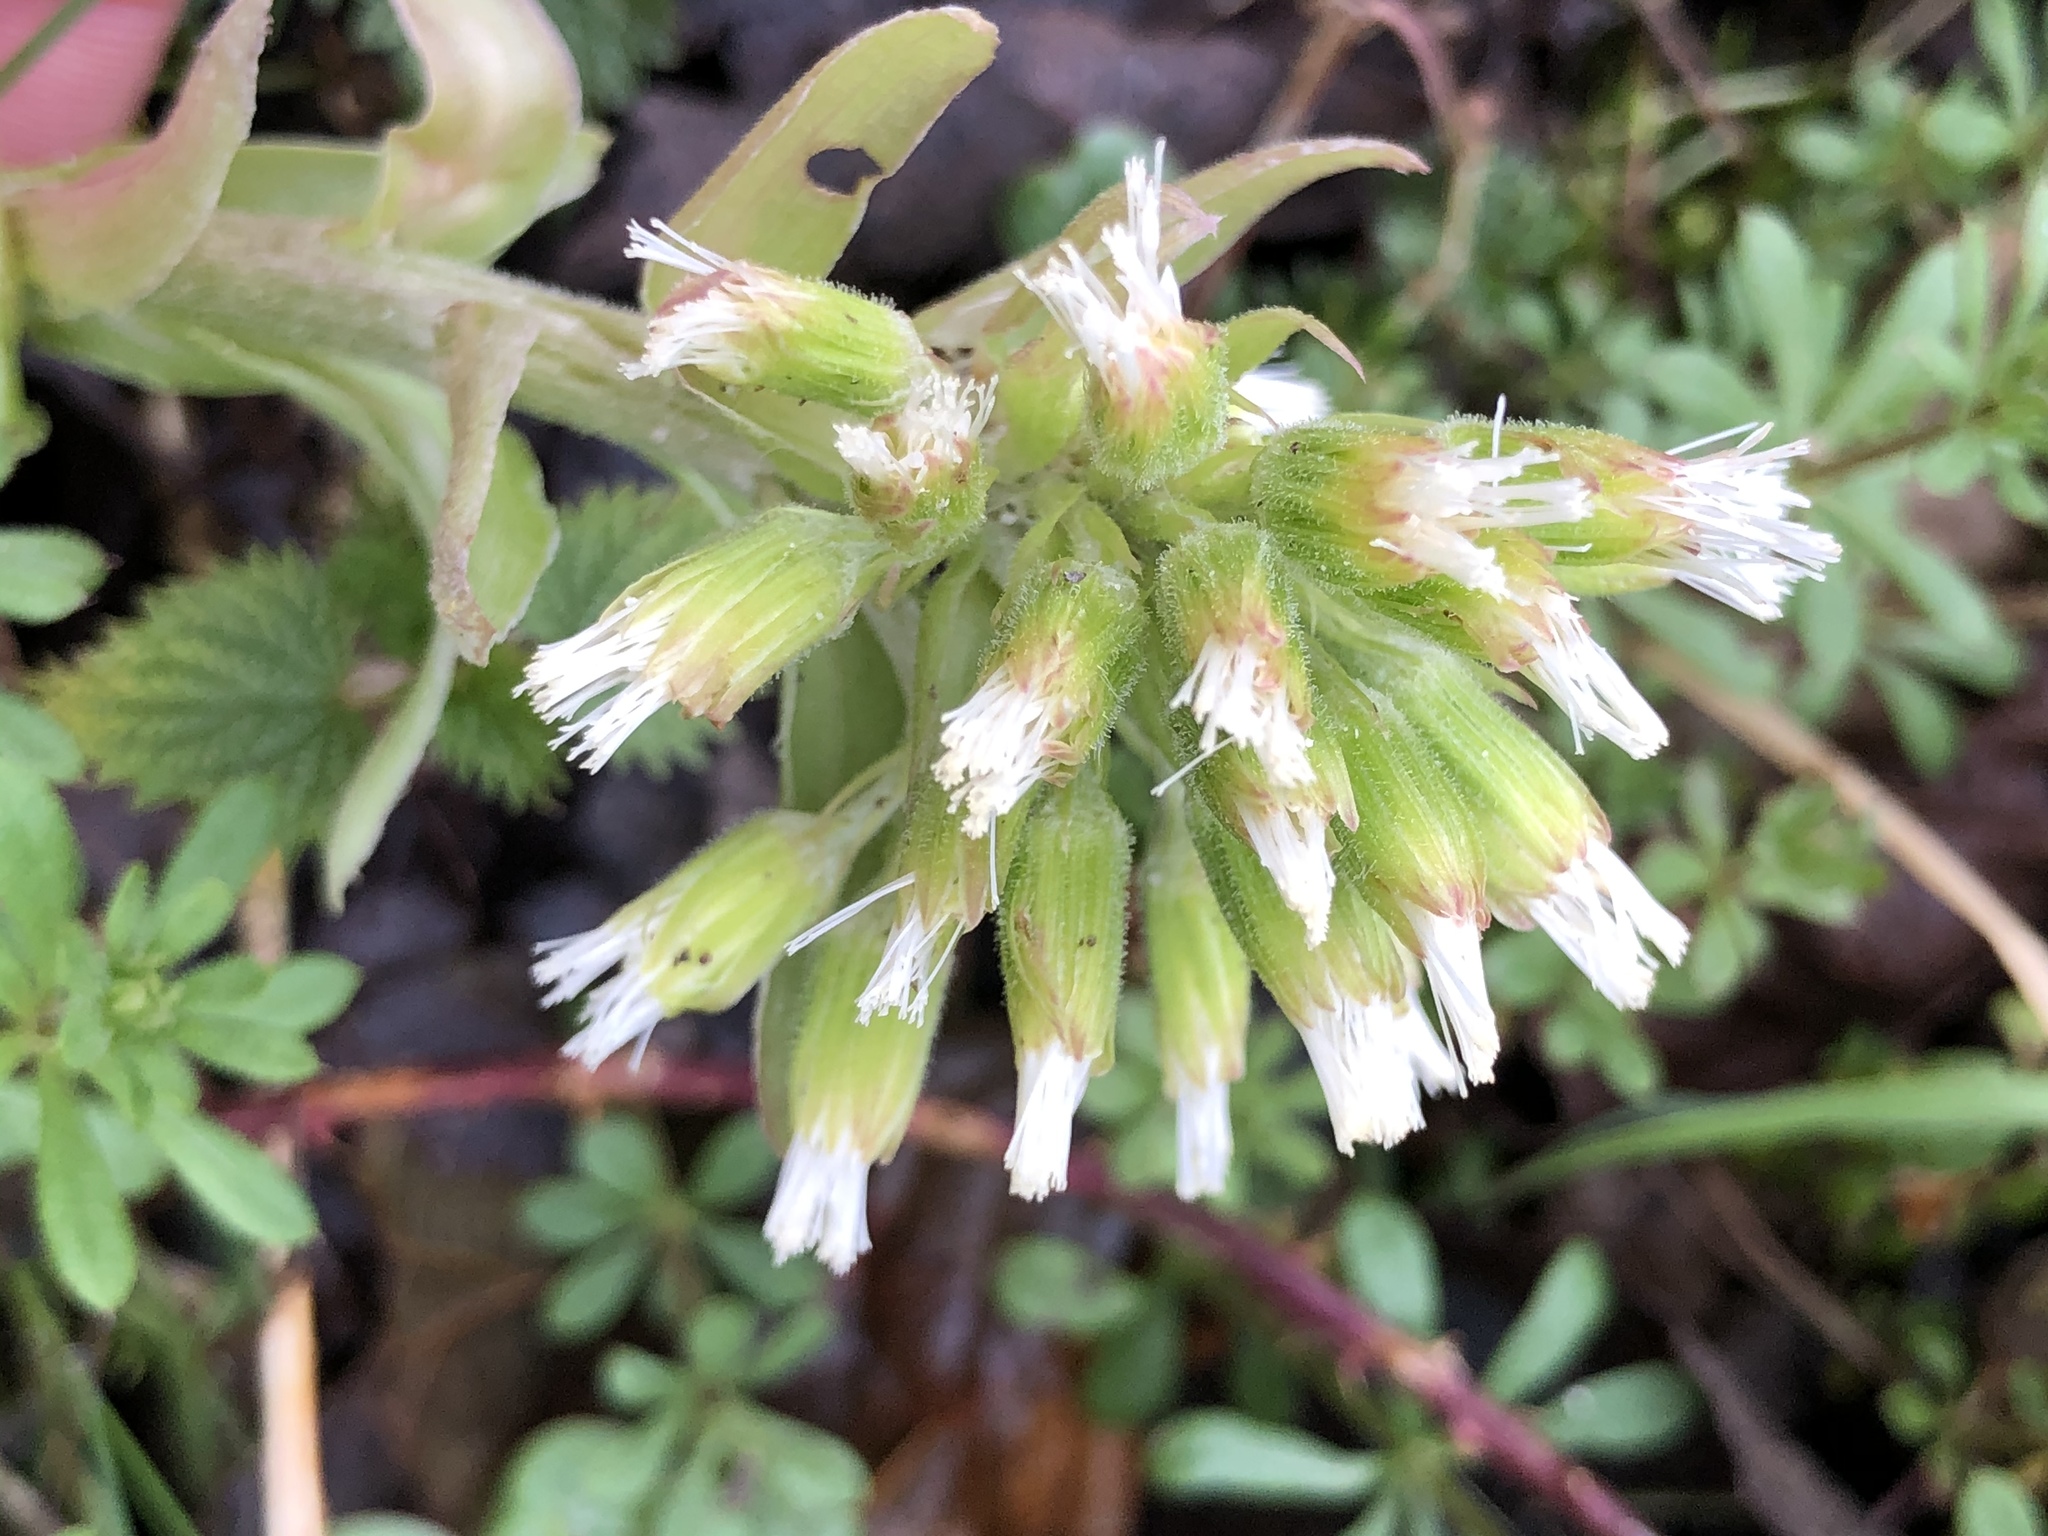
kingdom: Plantae
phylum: Tracheophyta
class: Magnoliopsida
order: Asterales
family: Asteraceae
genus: Petasites
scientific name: Petasites albus
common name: White butterbur
